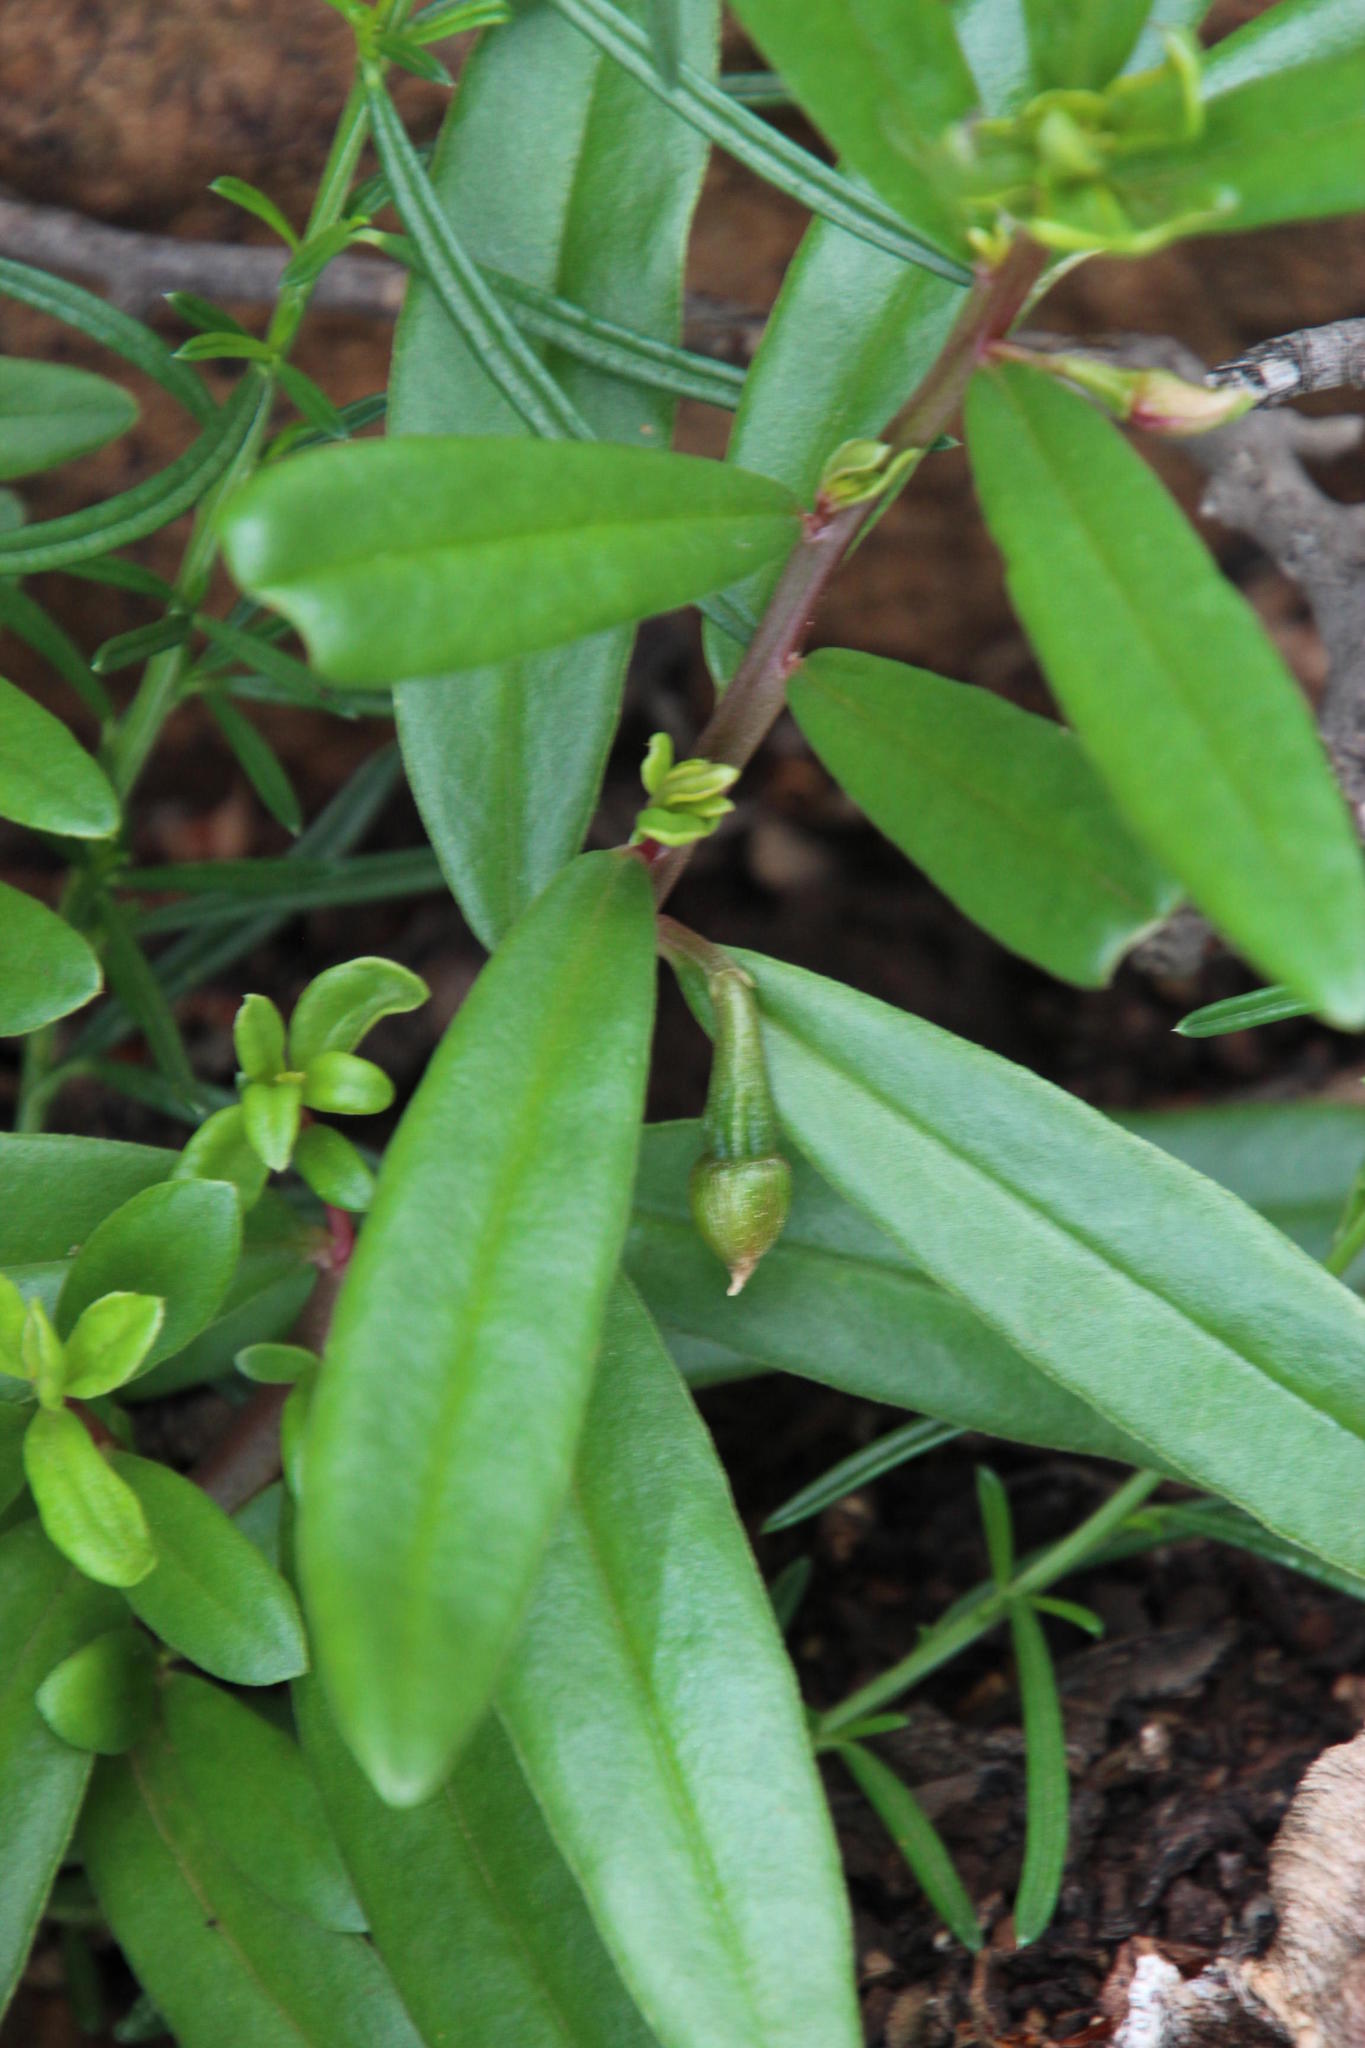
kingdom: Plantae
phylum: Tracheophyta
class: Magnoliopsida
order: Caryophyllales
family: Talinaceae
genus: Talinum
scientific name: Talinum caffrum
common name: Flameflower
